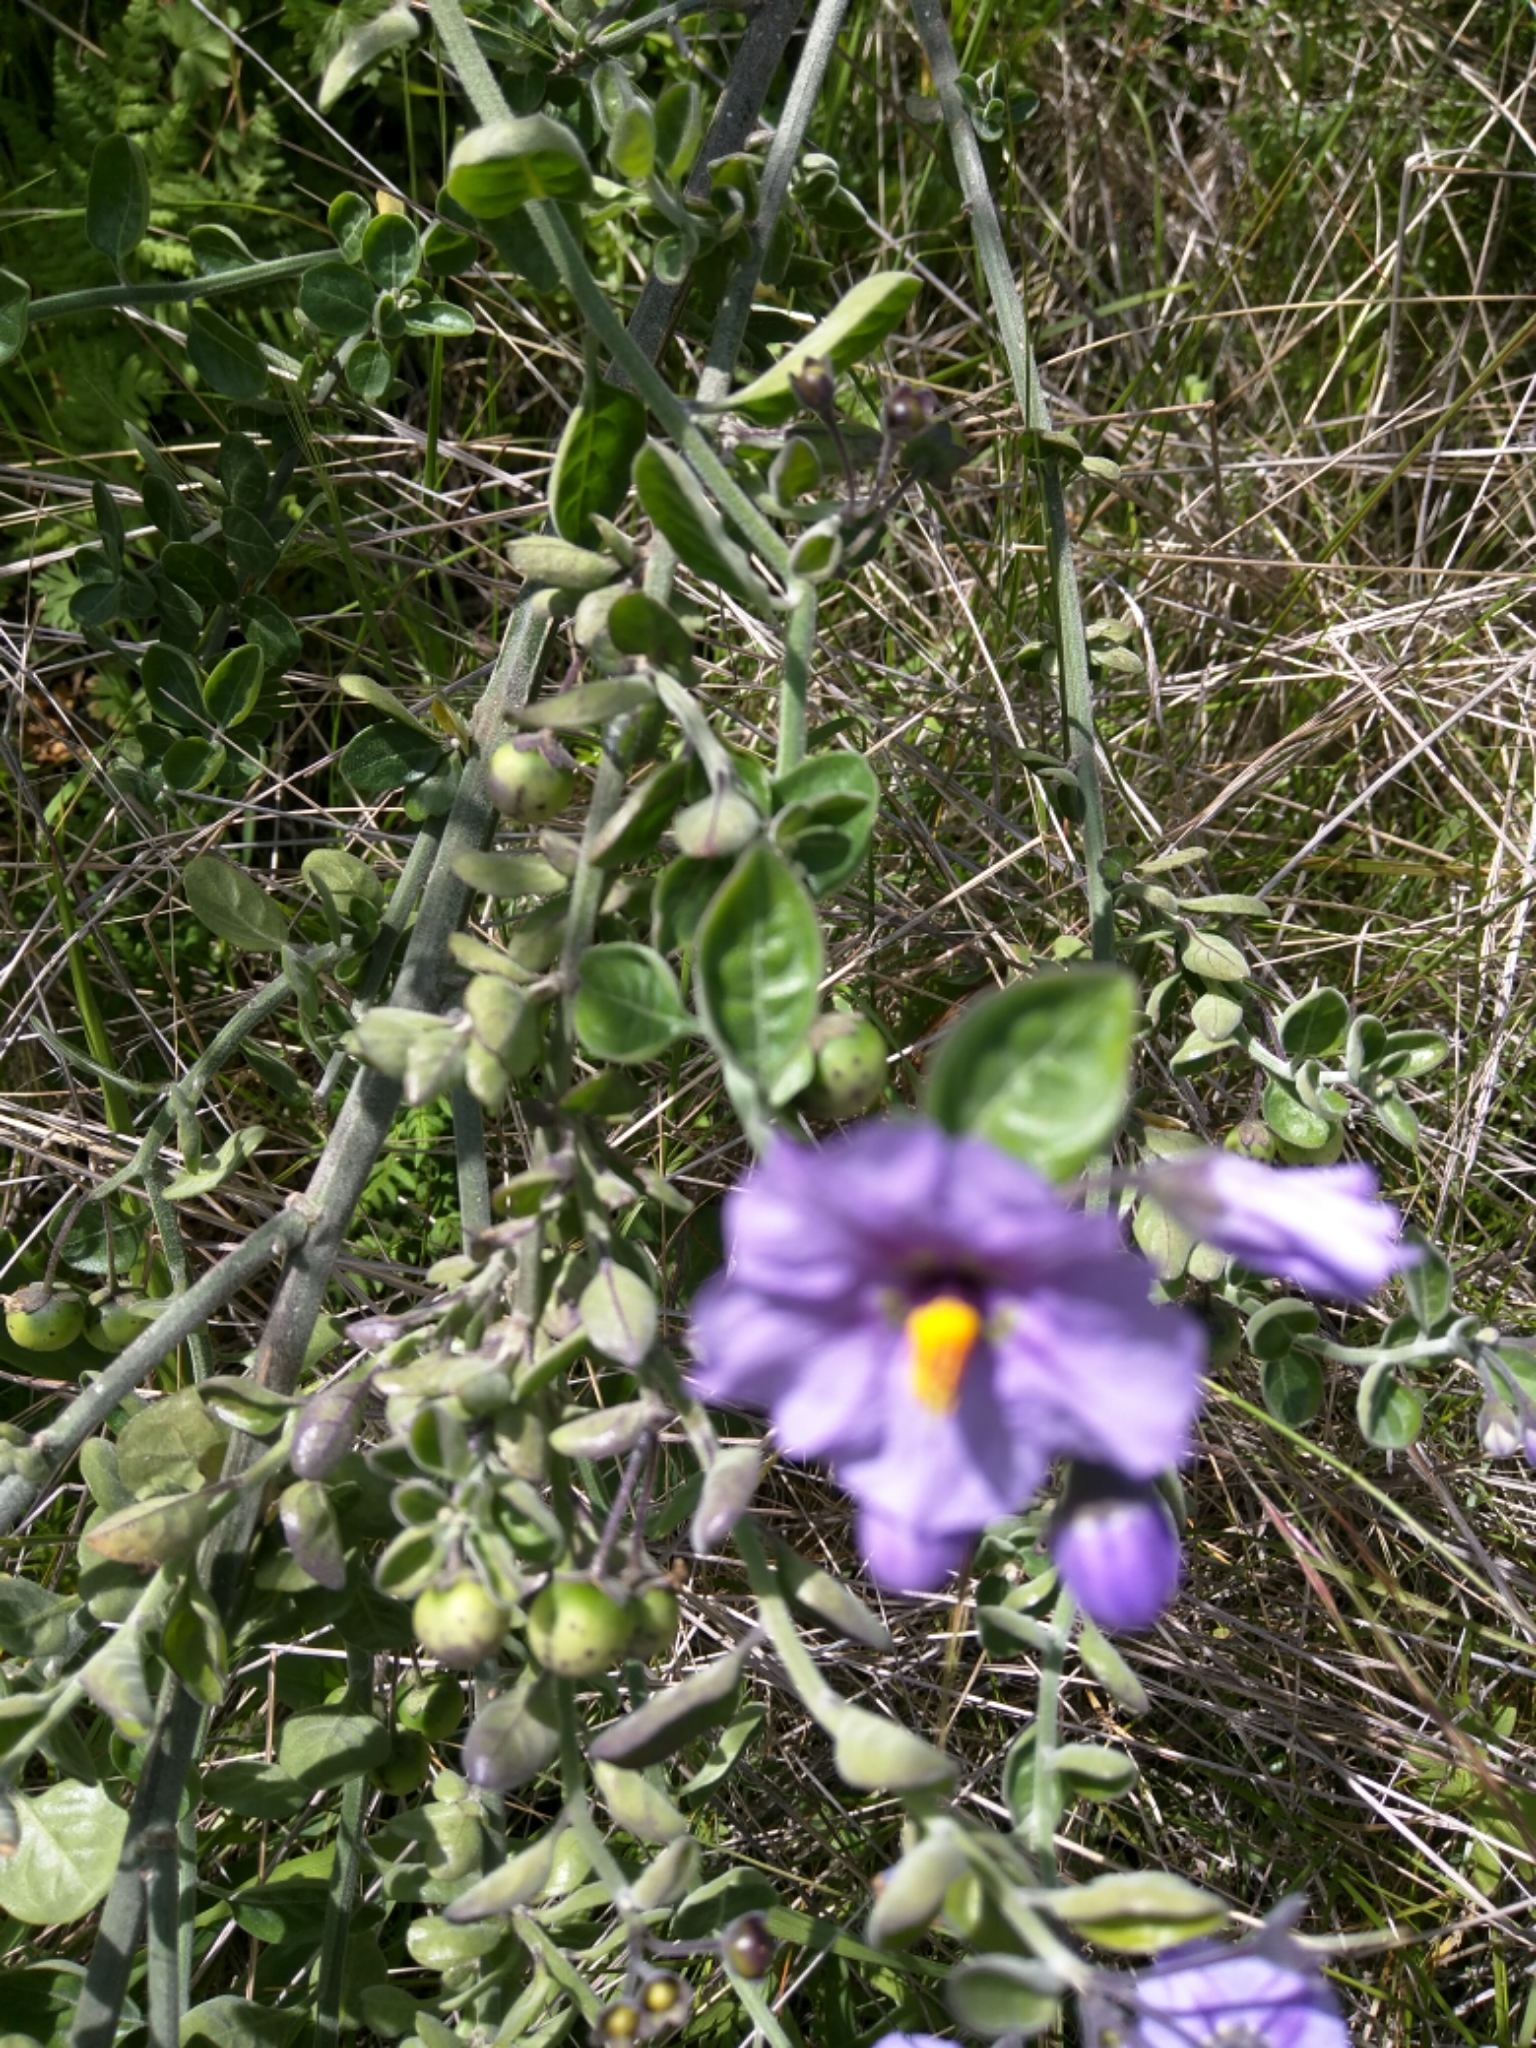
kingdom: Plantae
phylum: Tracheophyta
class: Magnoliopsida
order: Solanales
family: Solanaceae
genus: Solanum
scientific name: Solanum umbelliferum
